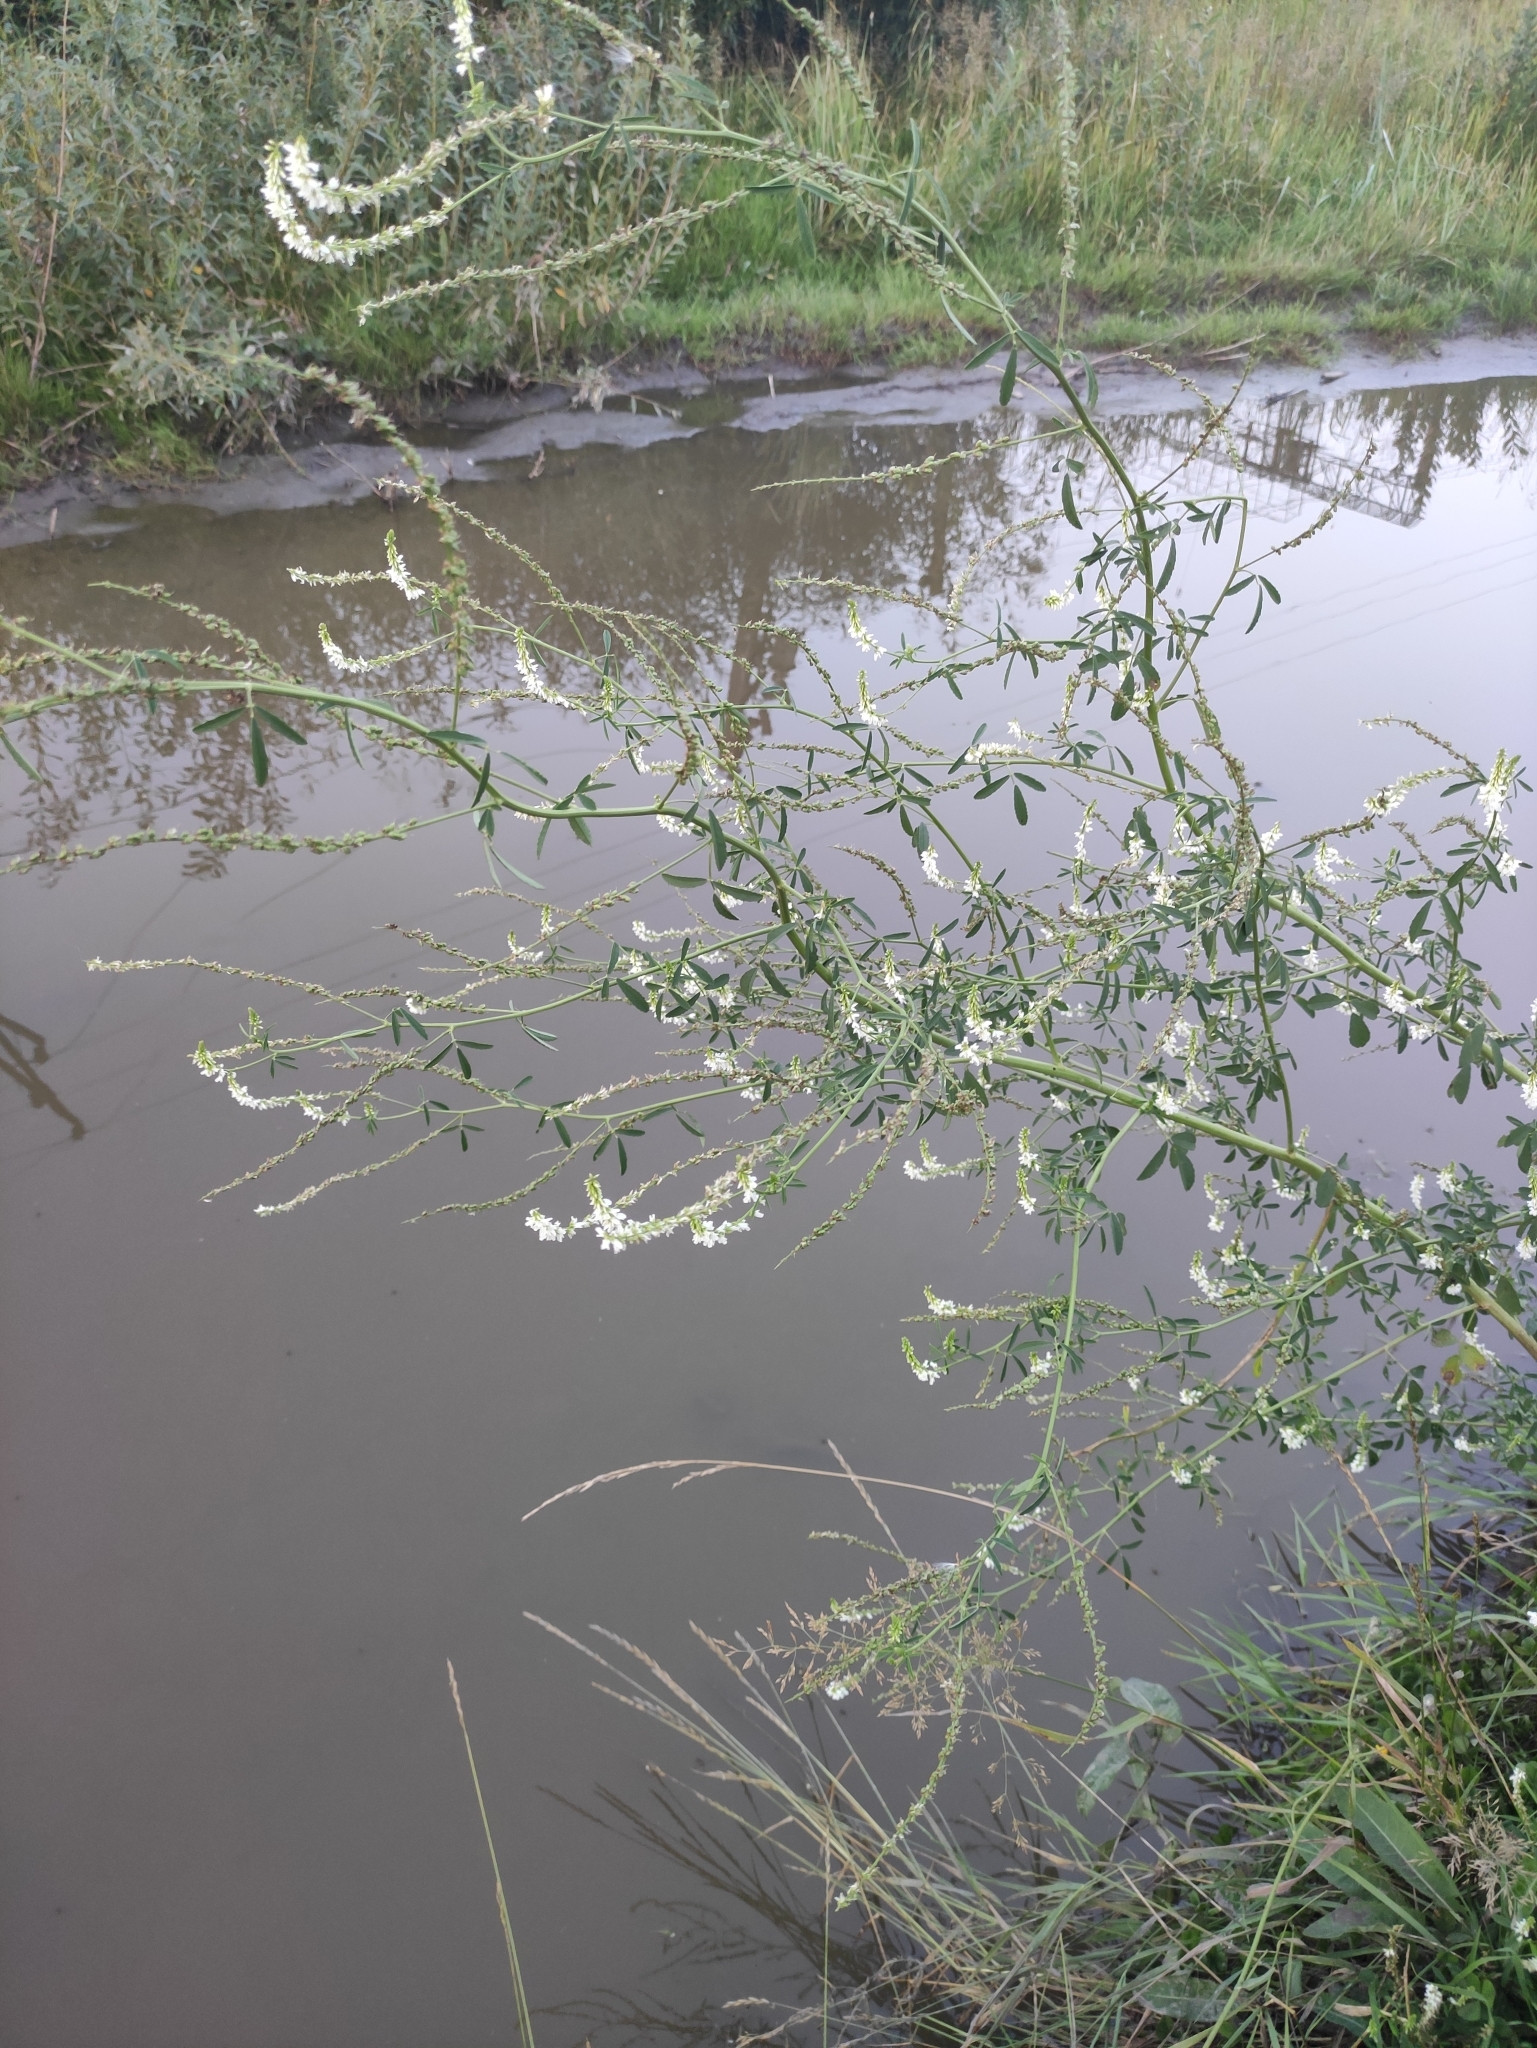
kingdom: Plantae
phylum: Tracheophyta
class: Magnoliopsida
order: Fabales
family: Fabaceae
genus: Melilotus
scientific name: Melilotus albus
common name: White melilot
